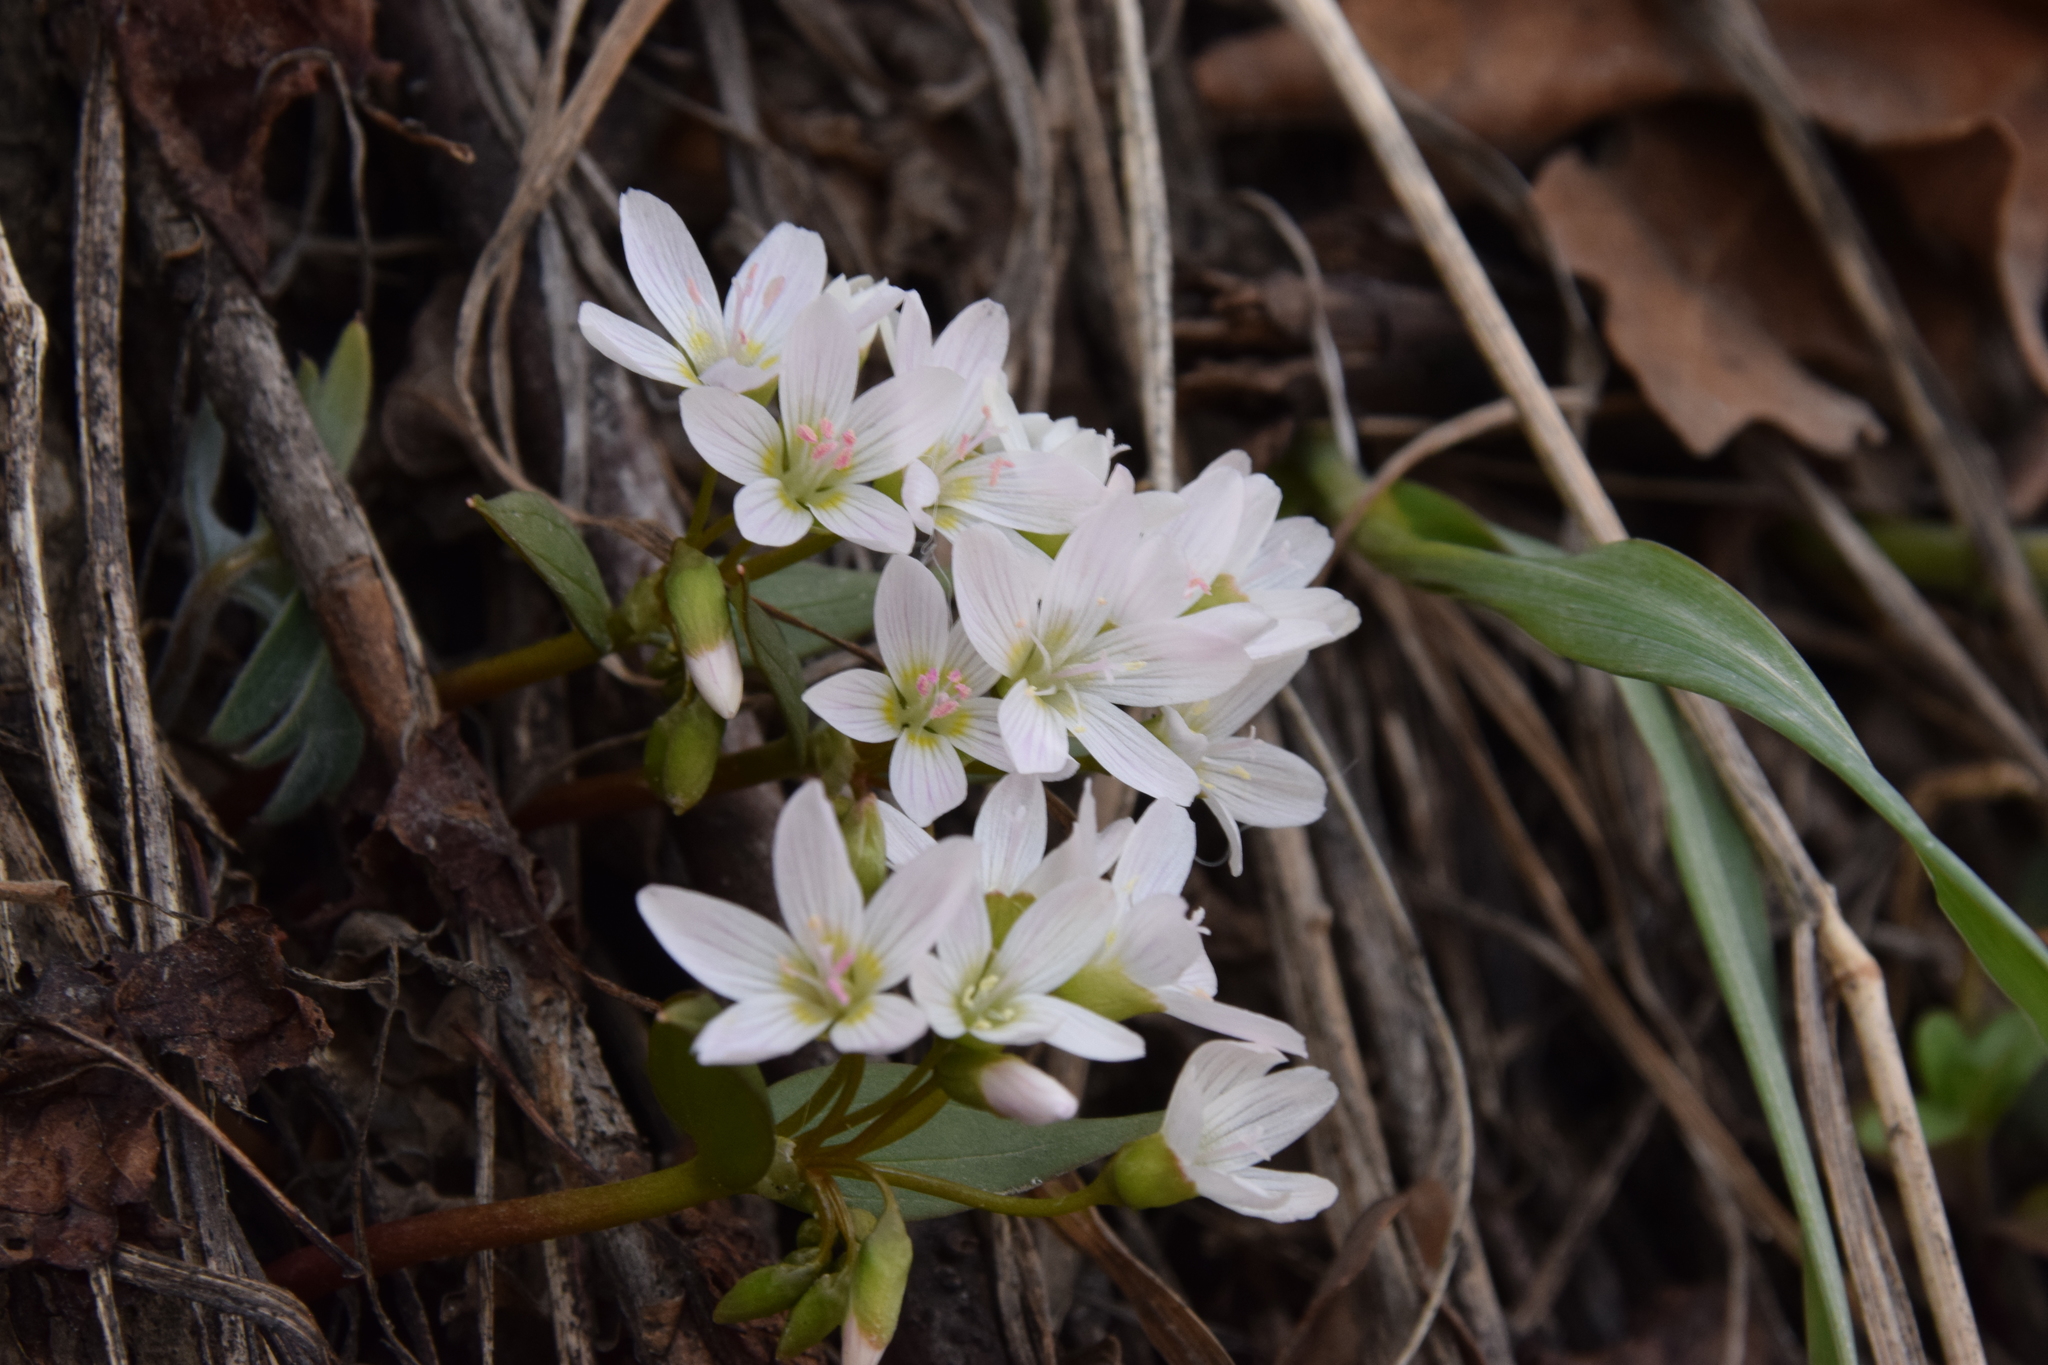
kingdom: Plantae
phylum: Tracheophyta
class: Magnoliopsida
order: Caryophyllales
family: Montiaceae
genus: Claytonia
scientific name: Claytonia lanceolata
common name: Western spring-beauty
